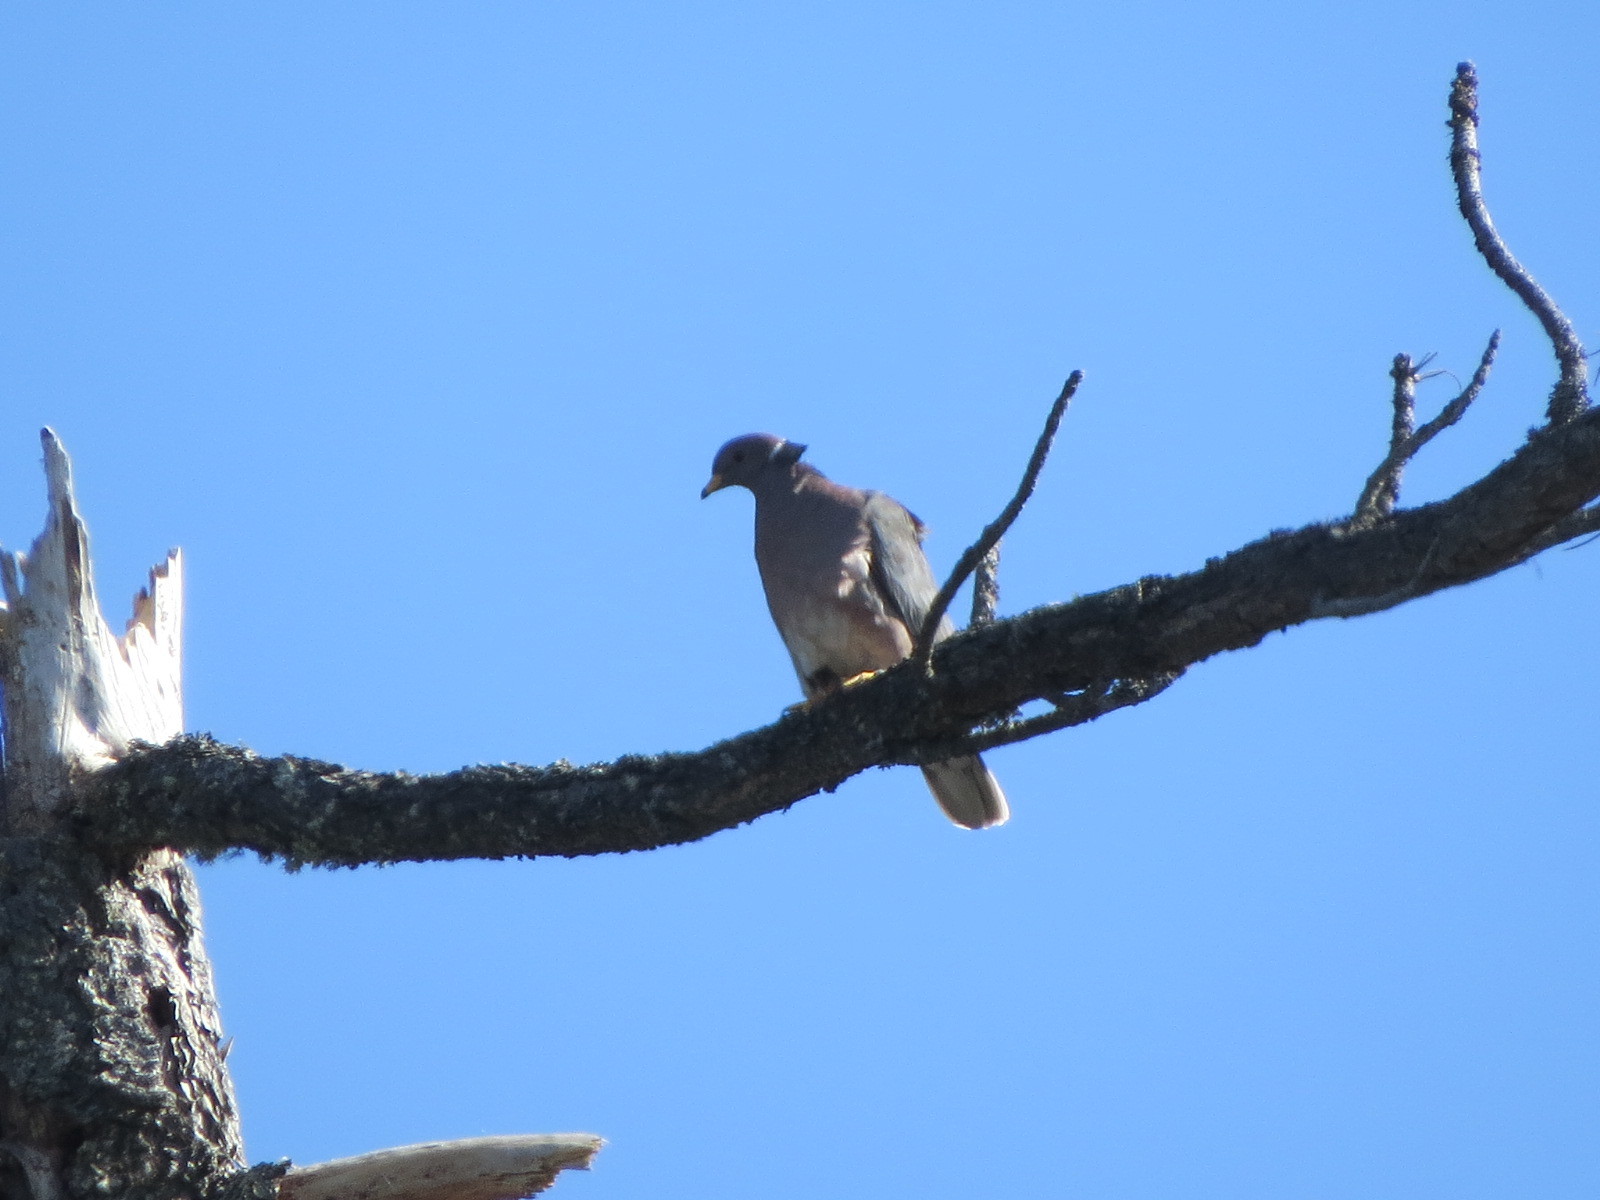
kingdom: Animalia
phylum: Chordata
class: Aves
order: Columbiformes
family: Columbidae
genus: Patagioenas
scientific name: Patagioenas fasciata
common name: Band-tailed pigeon
